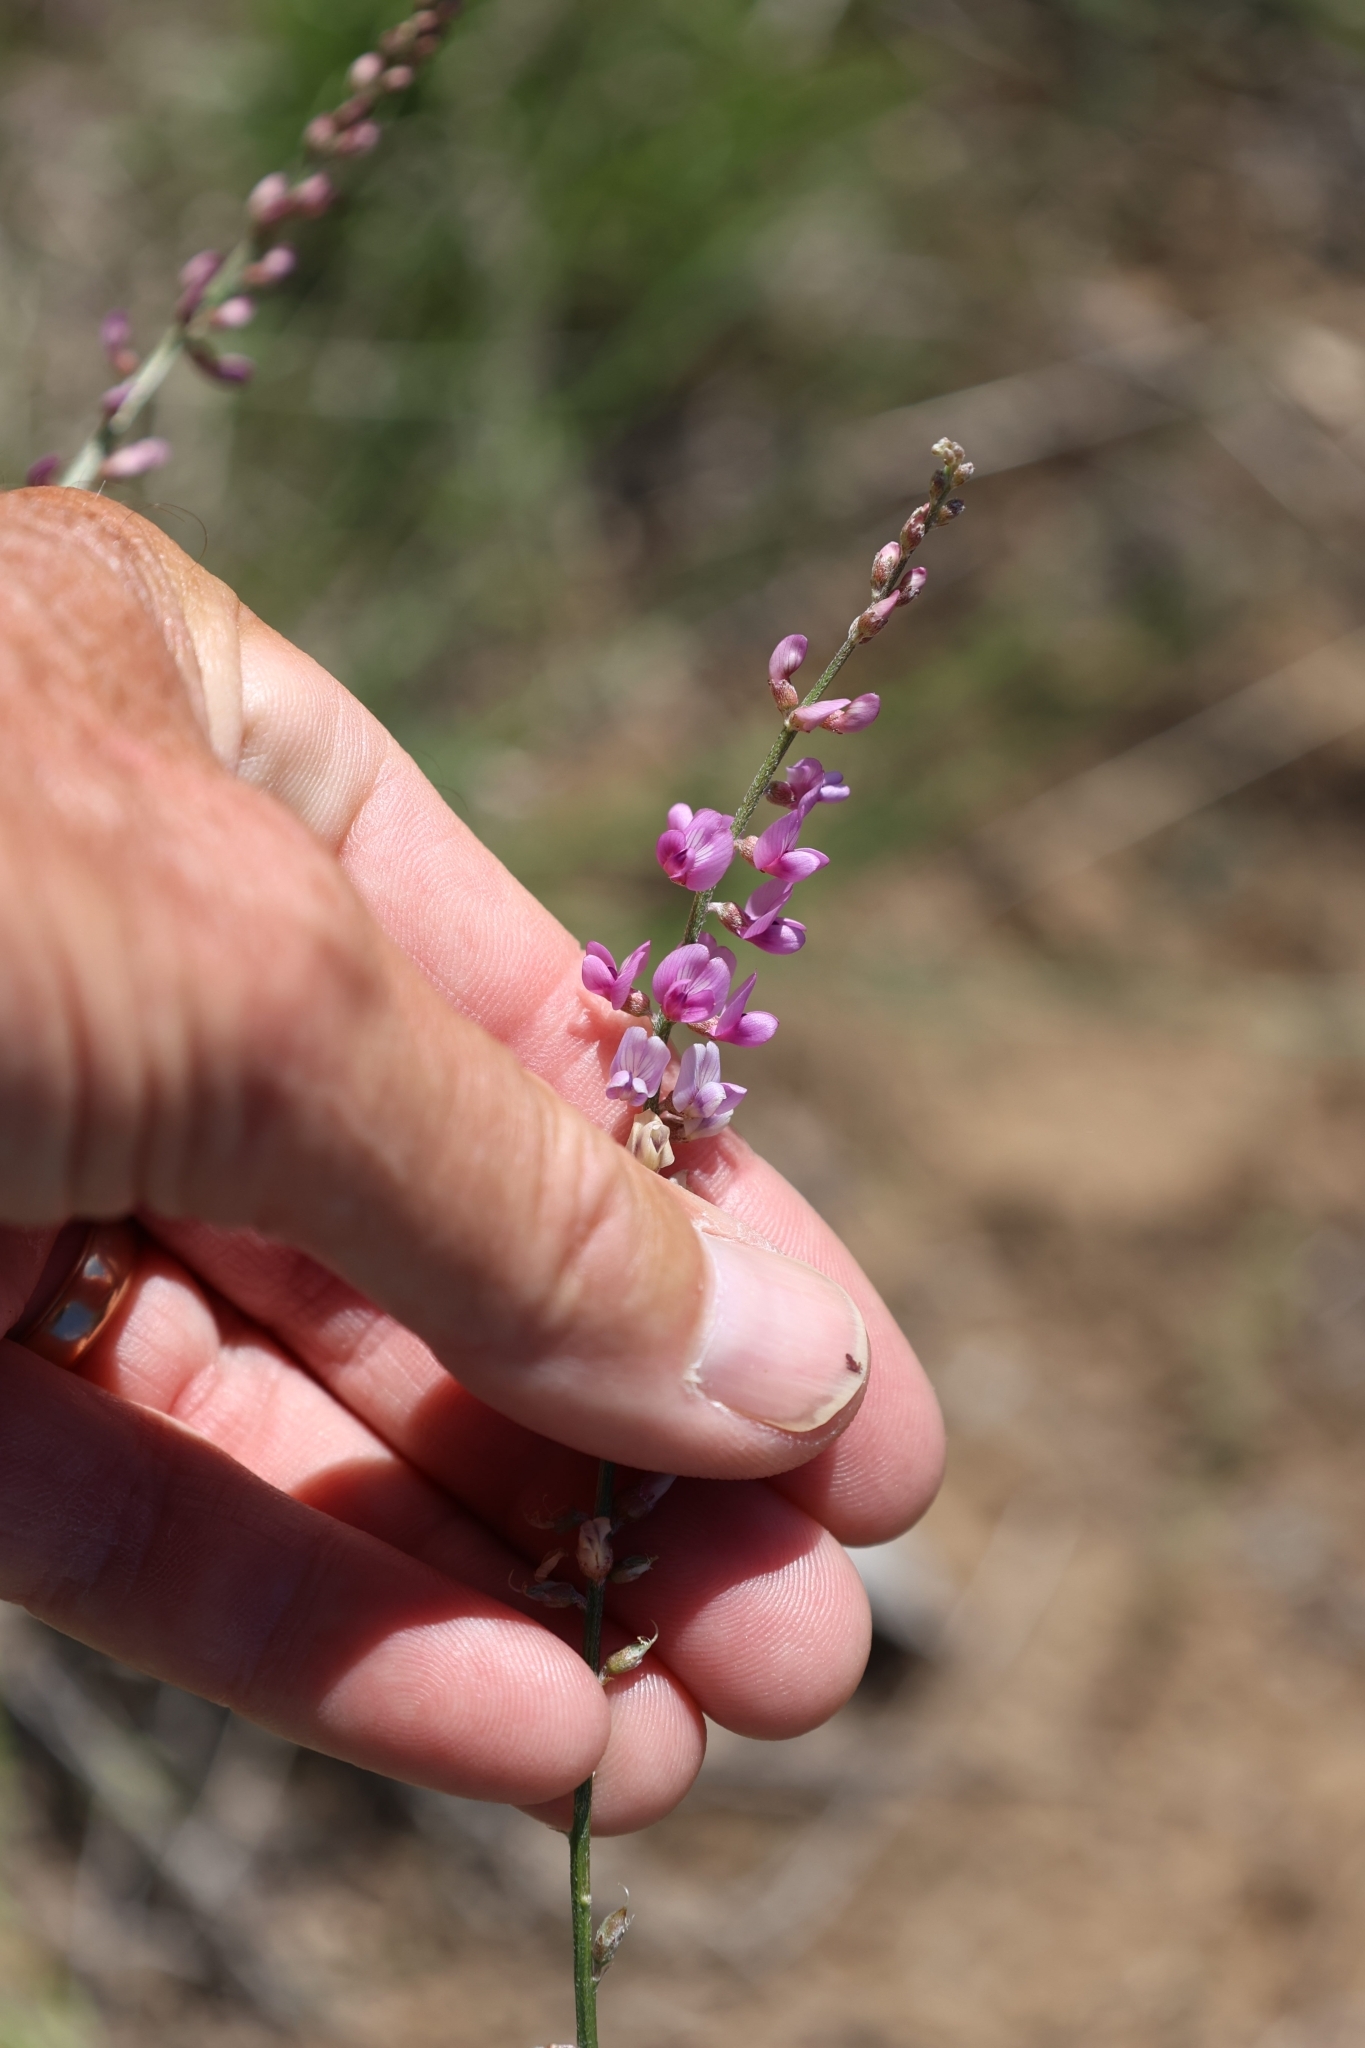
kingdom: Plantae
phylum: Tracheophyta
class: Magnoliopsida
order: Fabales
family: Fabaceae
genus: Astragalus
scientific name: Astragalus gracilis
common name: Slender milk-vetch
